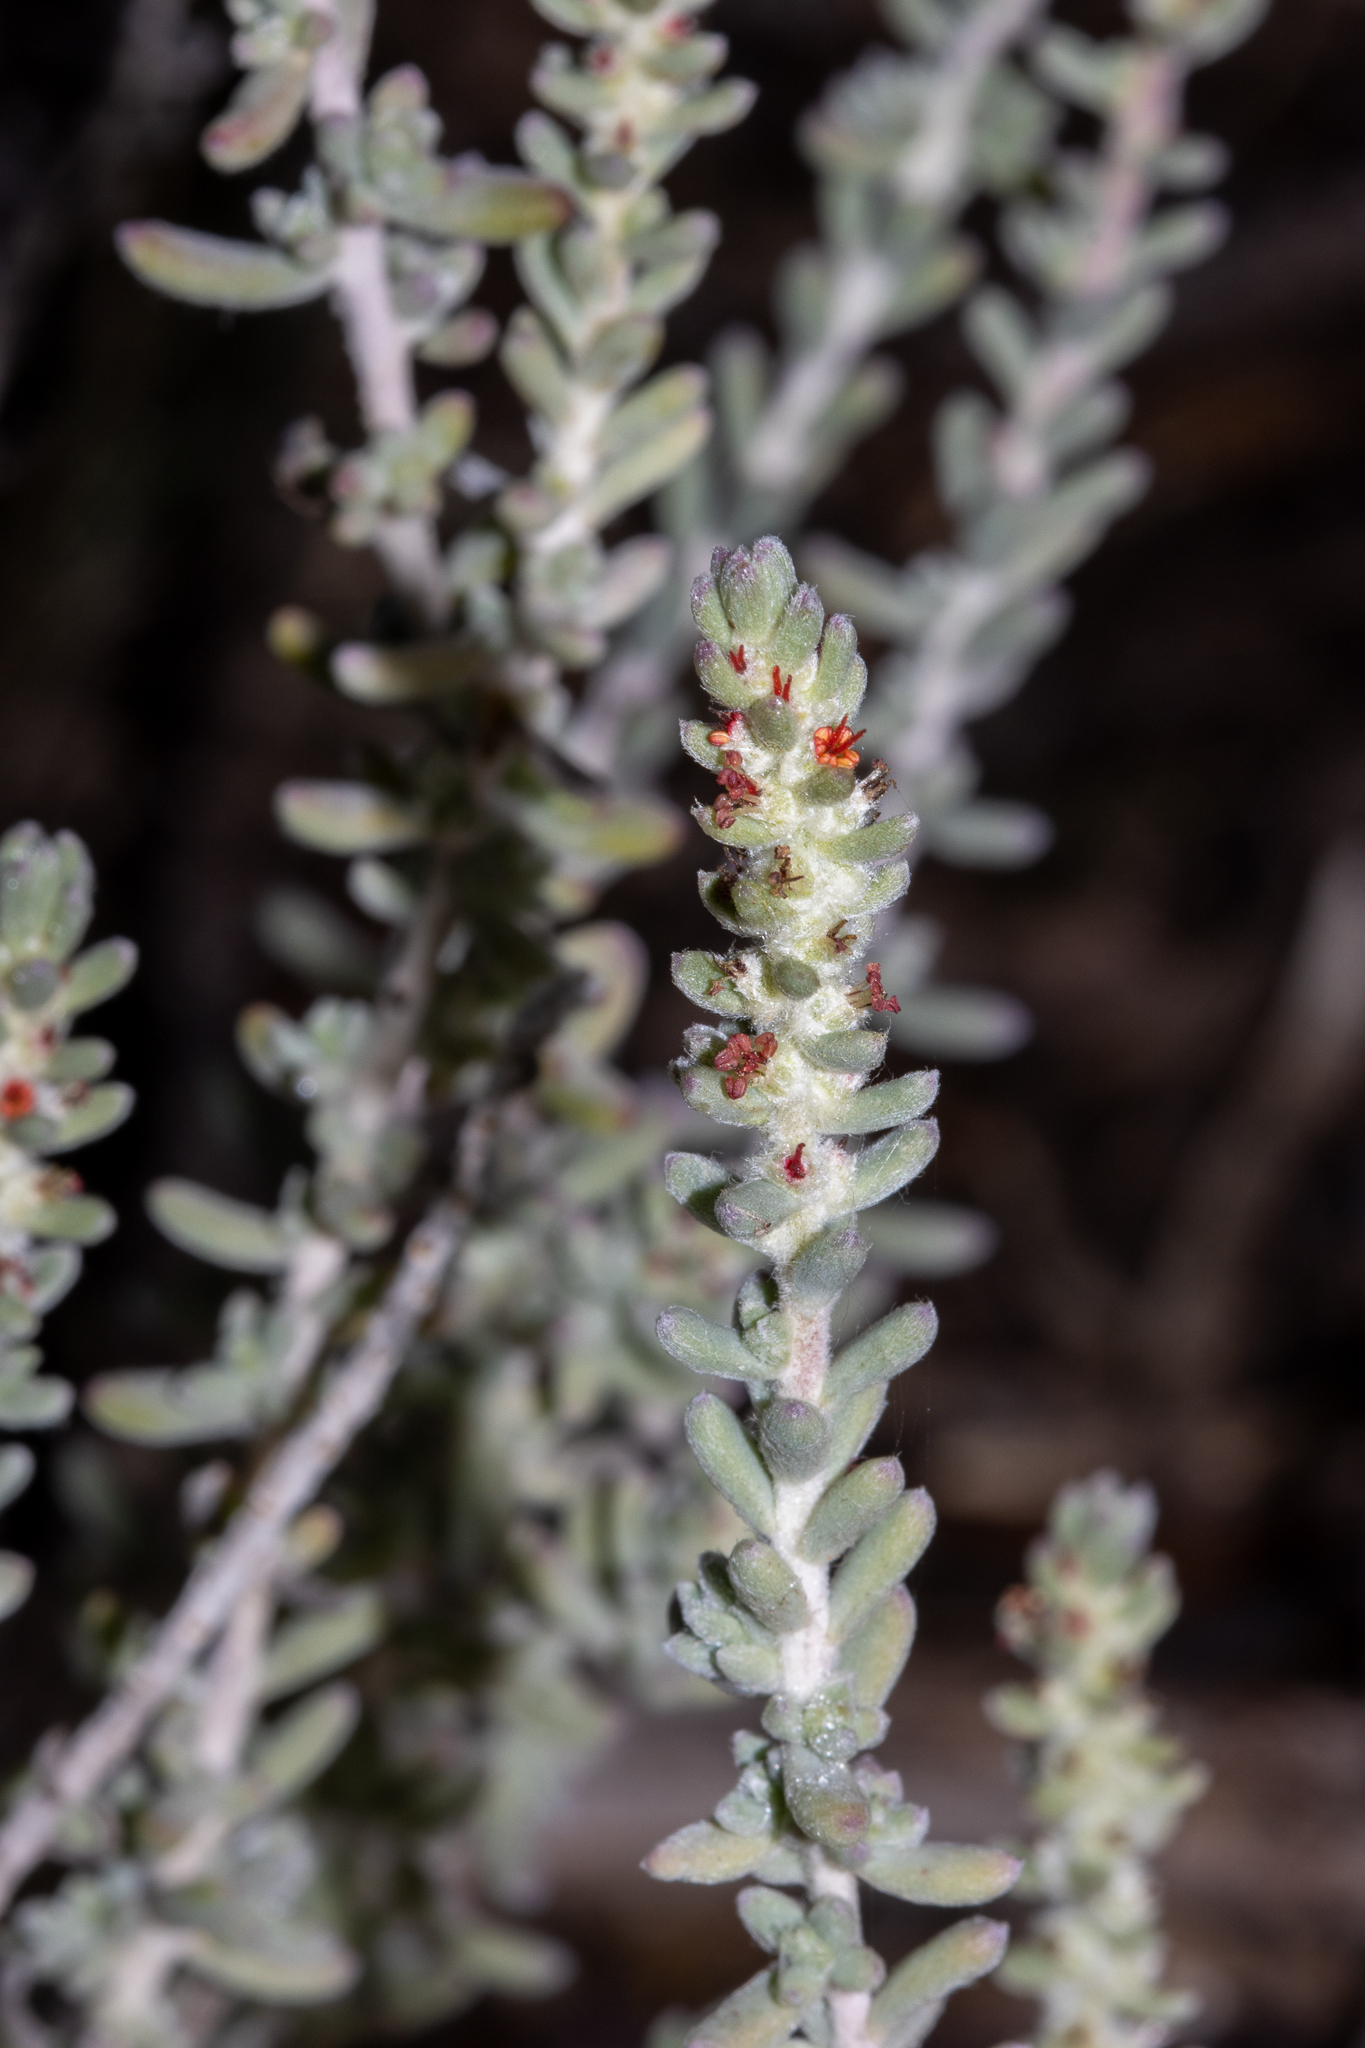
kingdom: Plantae
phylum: Tracheophyta
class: Magnoliopsida
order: Caryophyllales
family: Amaranthaceae
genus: Maireana
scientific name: Maireana trichoptera
